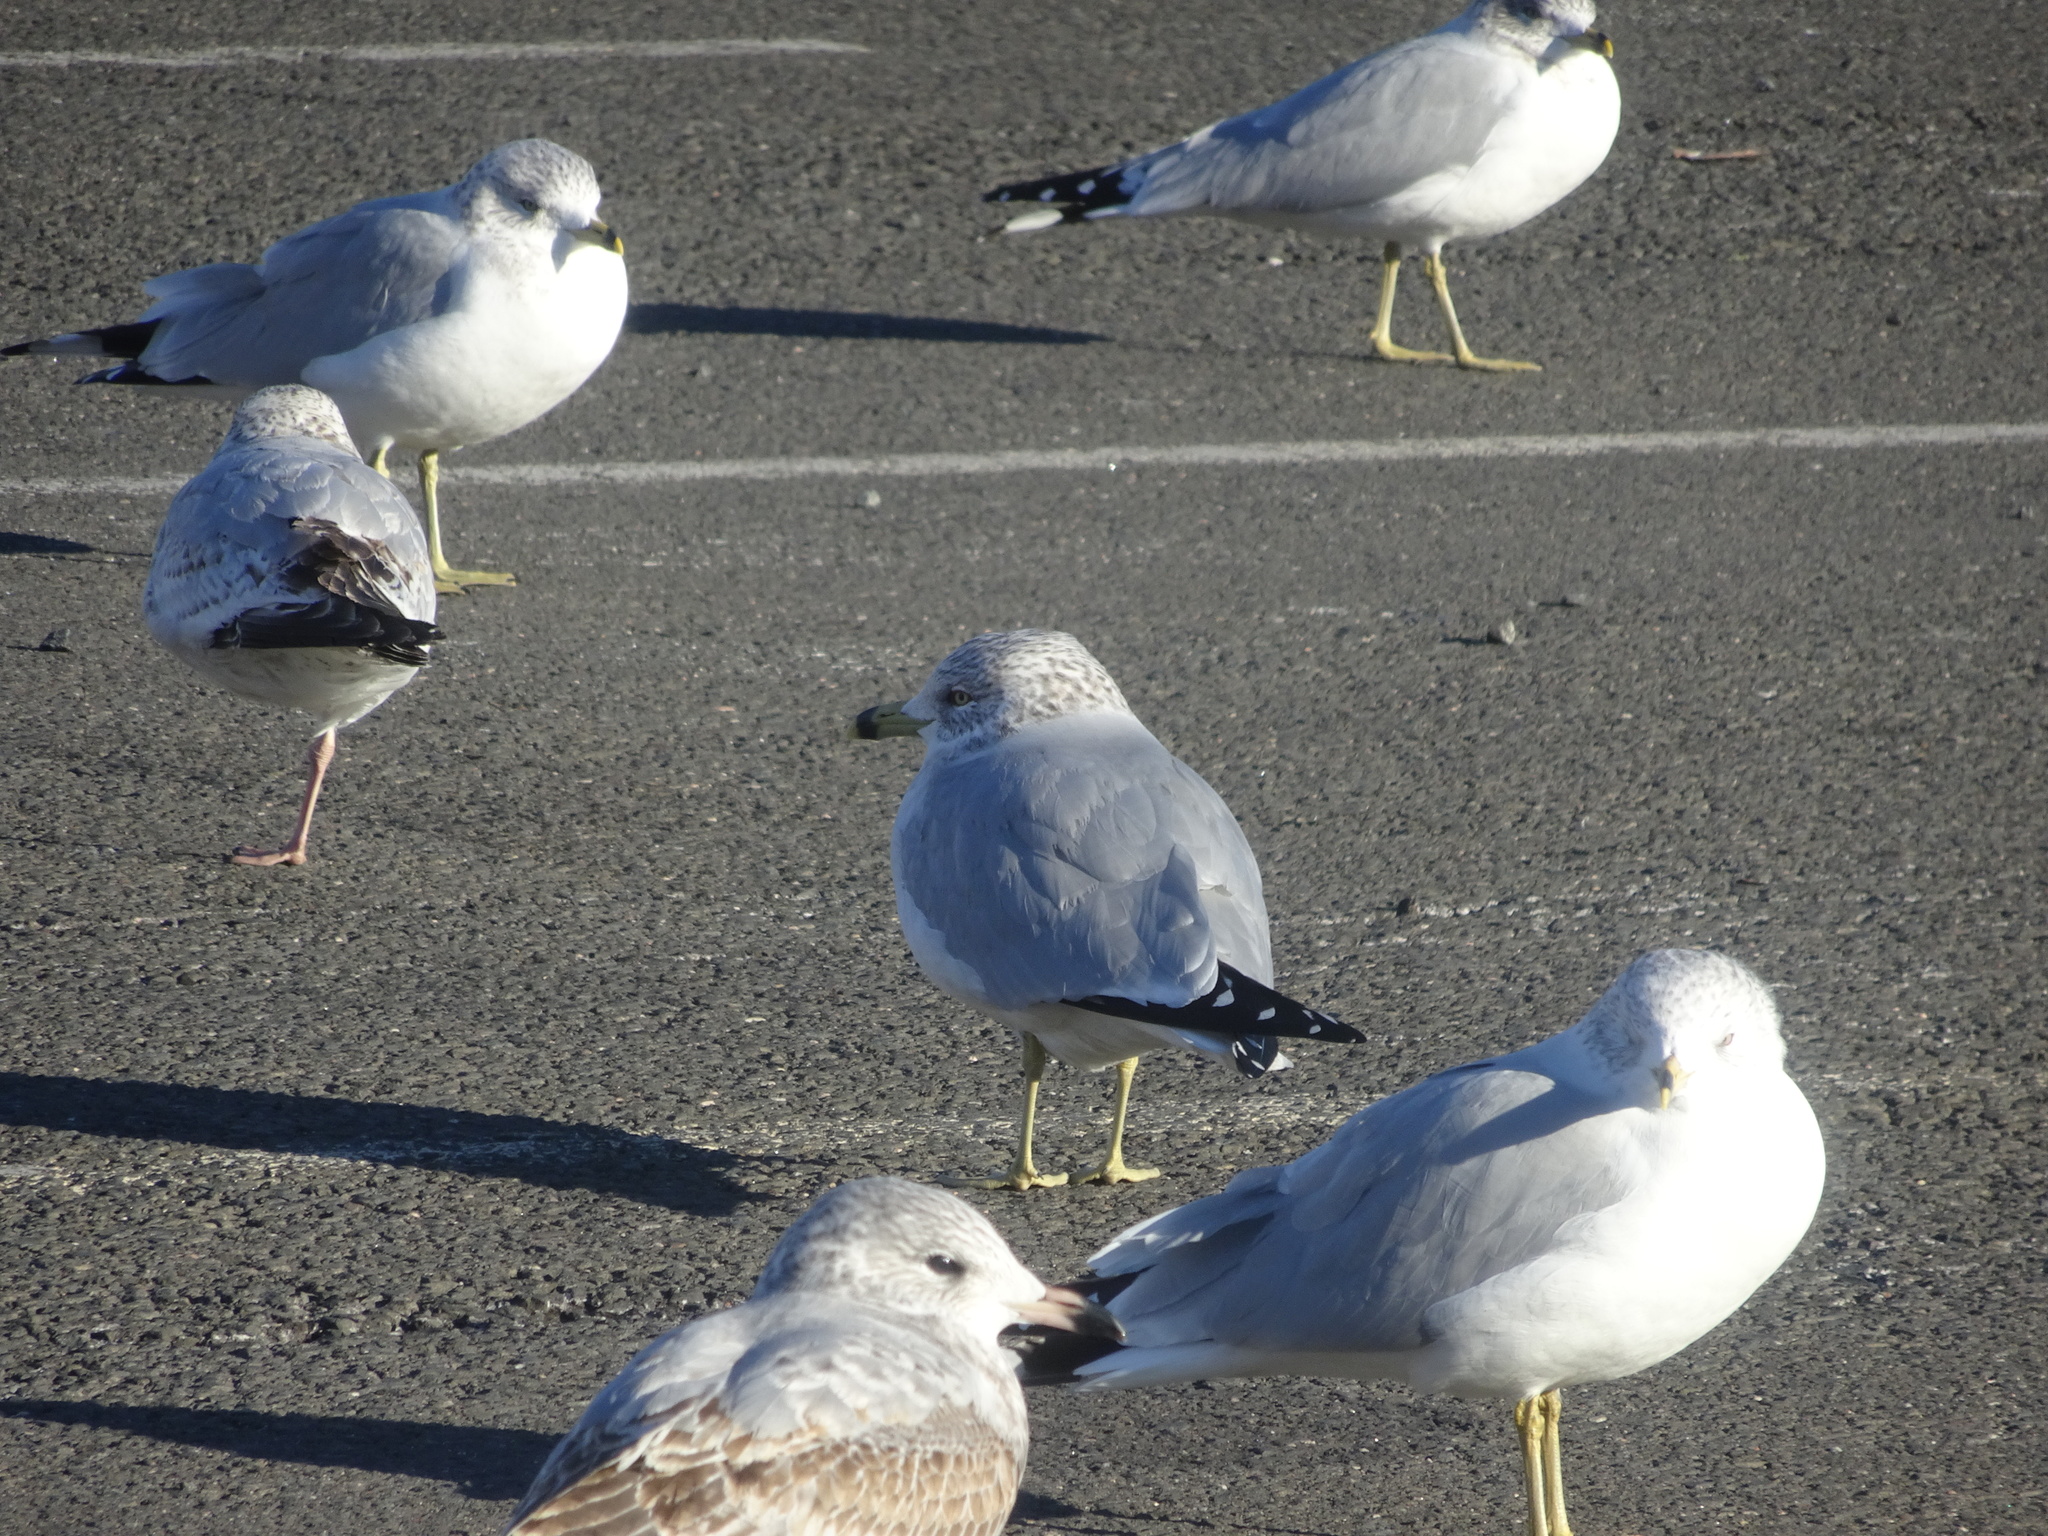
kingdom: Animalia
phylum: Chordata
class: Aves
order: Charadriiformes
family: Laridae
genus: Larus
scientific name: Larus delawarensis
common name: Ring-billed gull
